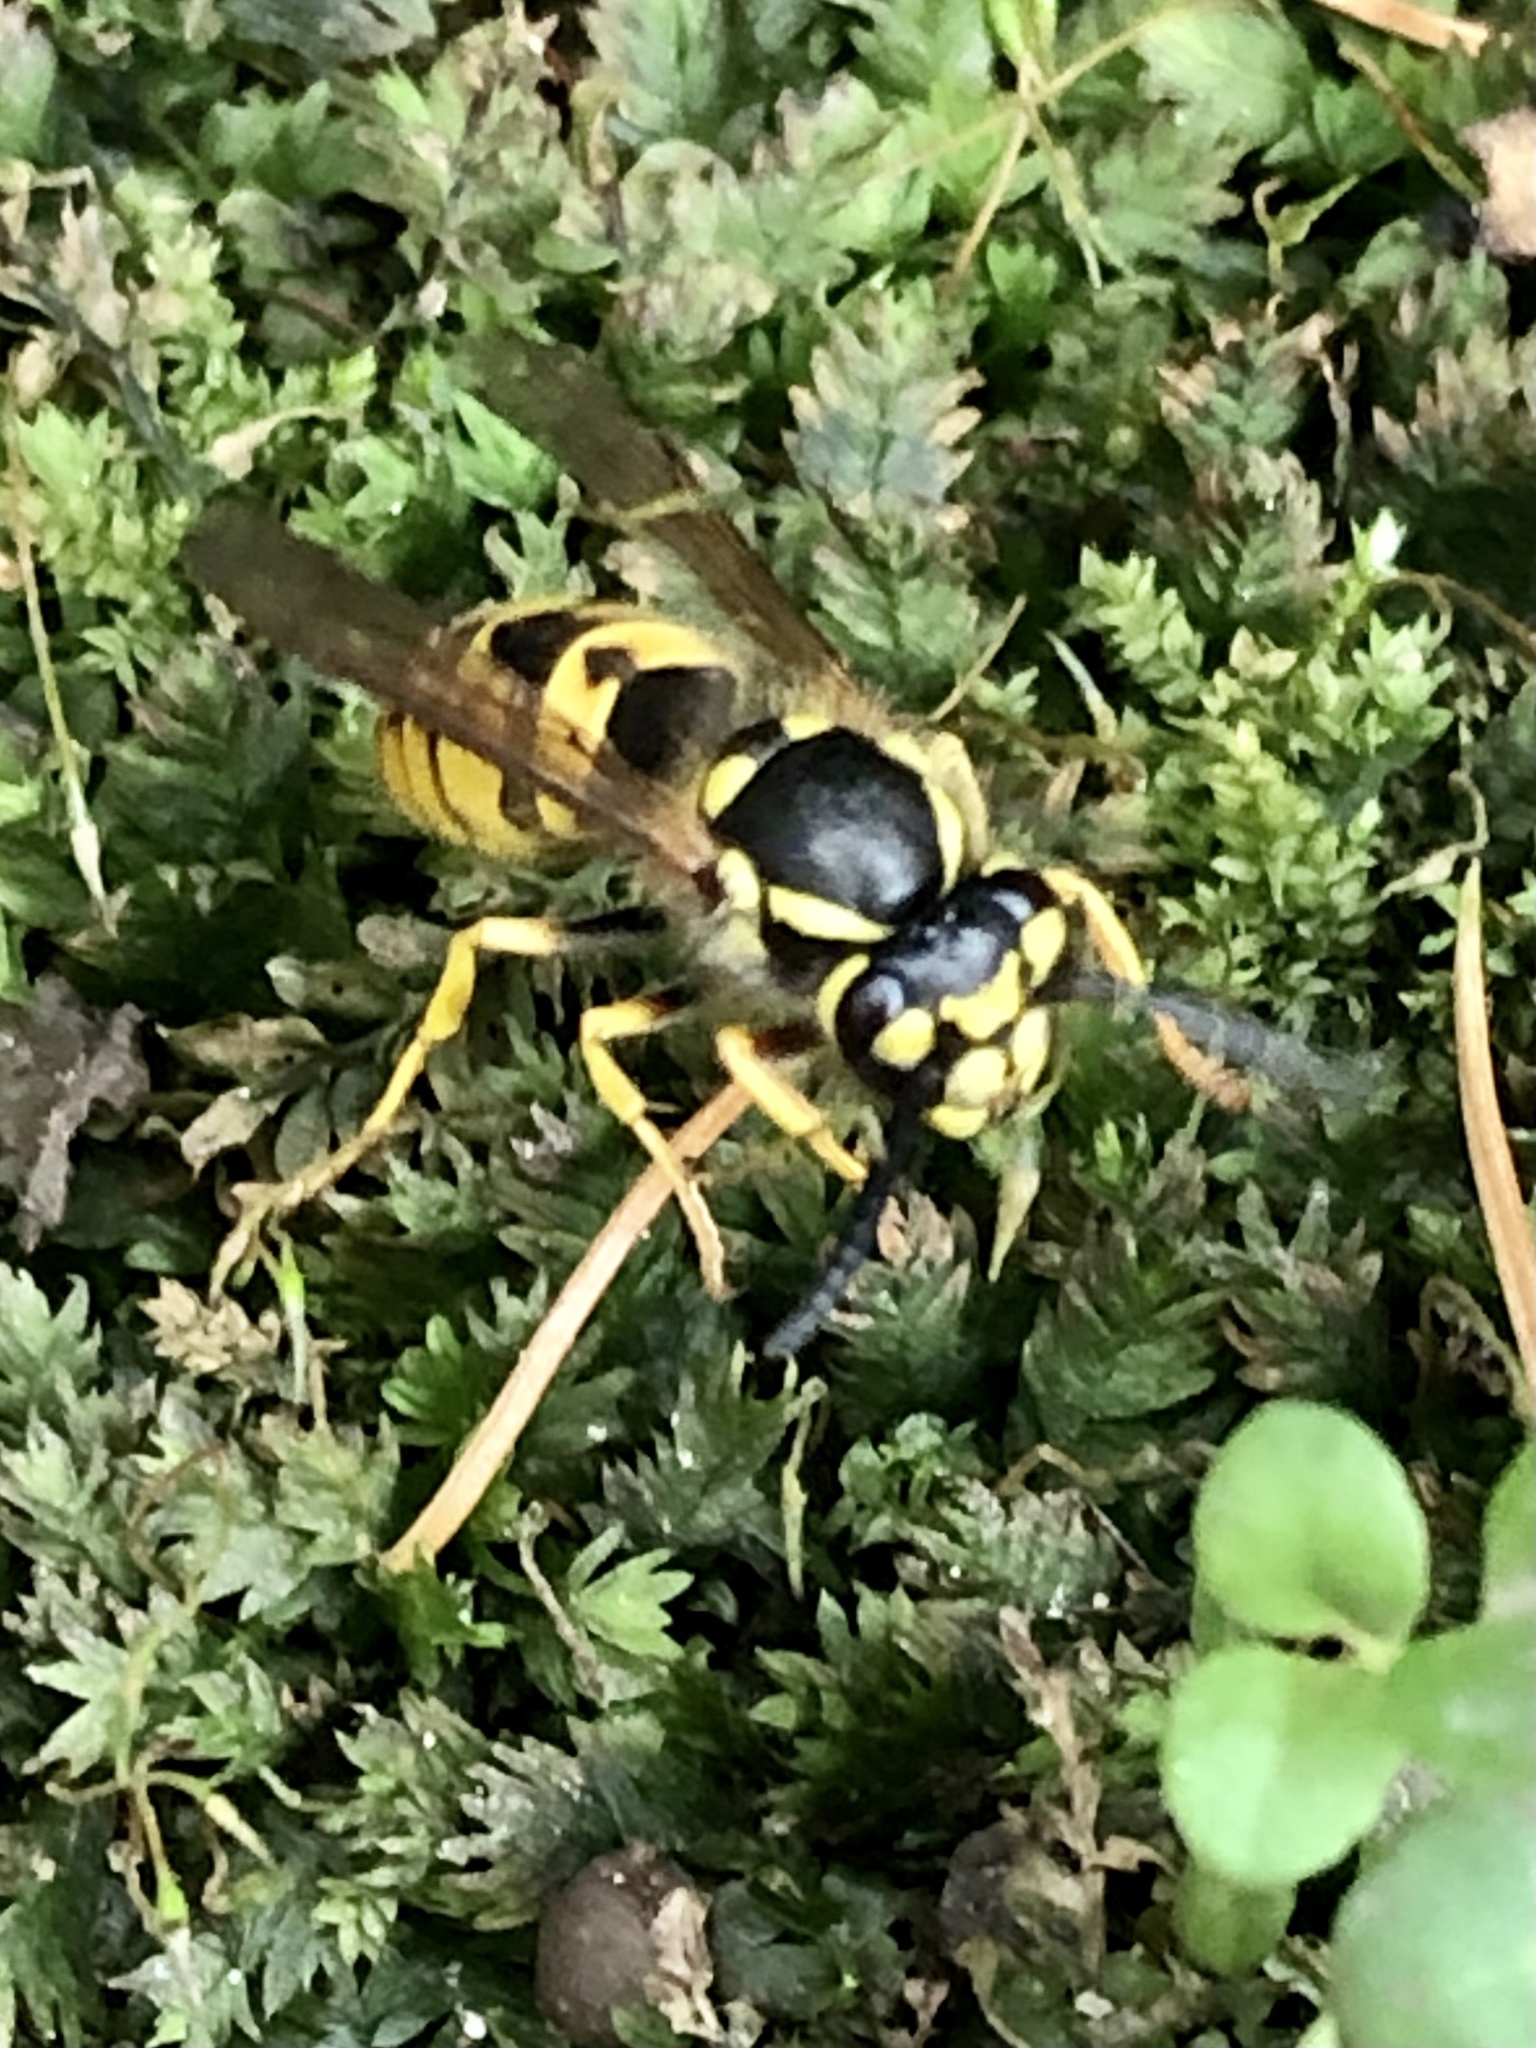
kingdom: Animalia
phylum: Arthropoda
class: Insecta
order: Hymenoptera
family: Vespidae
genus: Vespula
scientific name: Vespula germanica
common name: German wasp
